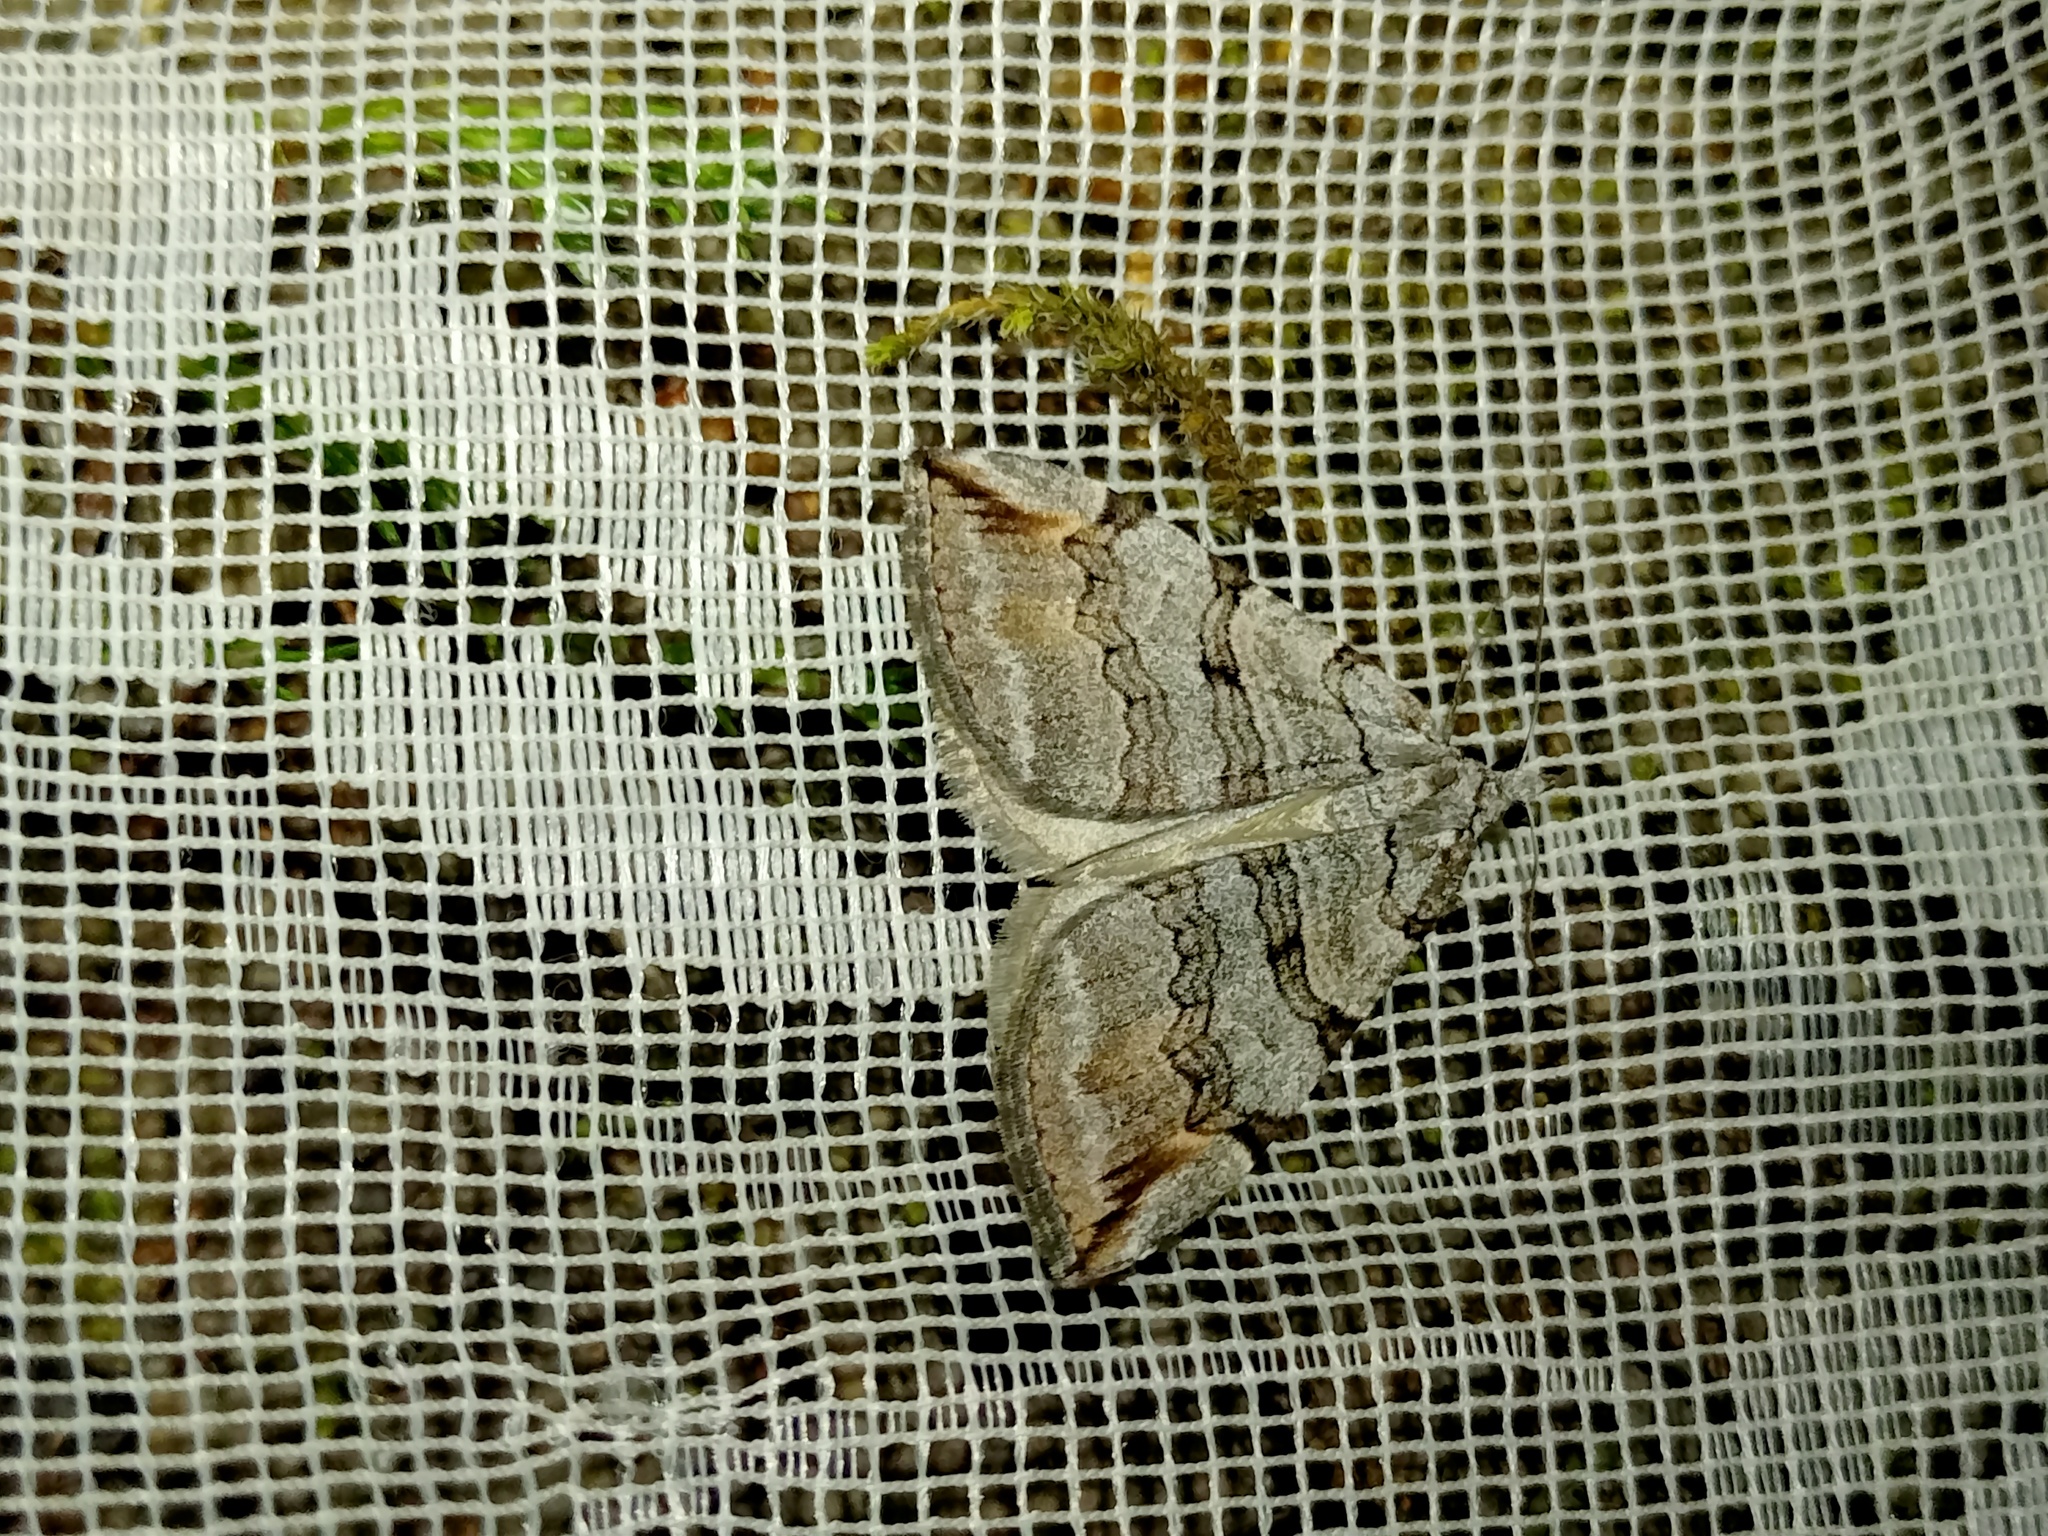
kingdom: Animalia
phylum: Arthropoda
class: Insecta
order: Lepidoptera
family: Geometridae
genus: Aplocera
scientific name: Aplocera plagiata
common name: Treble-bar
